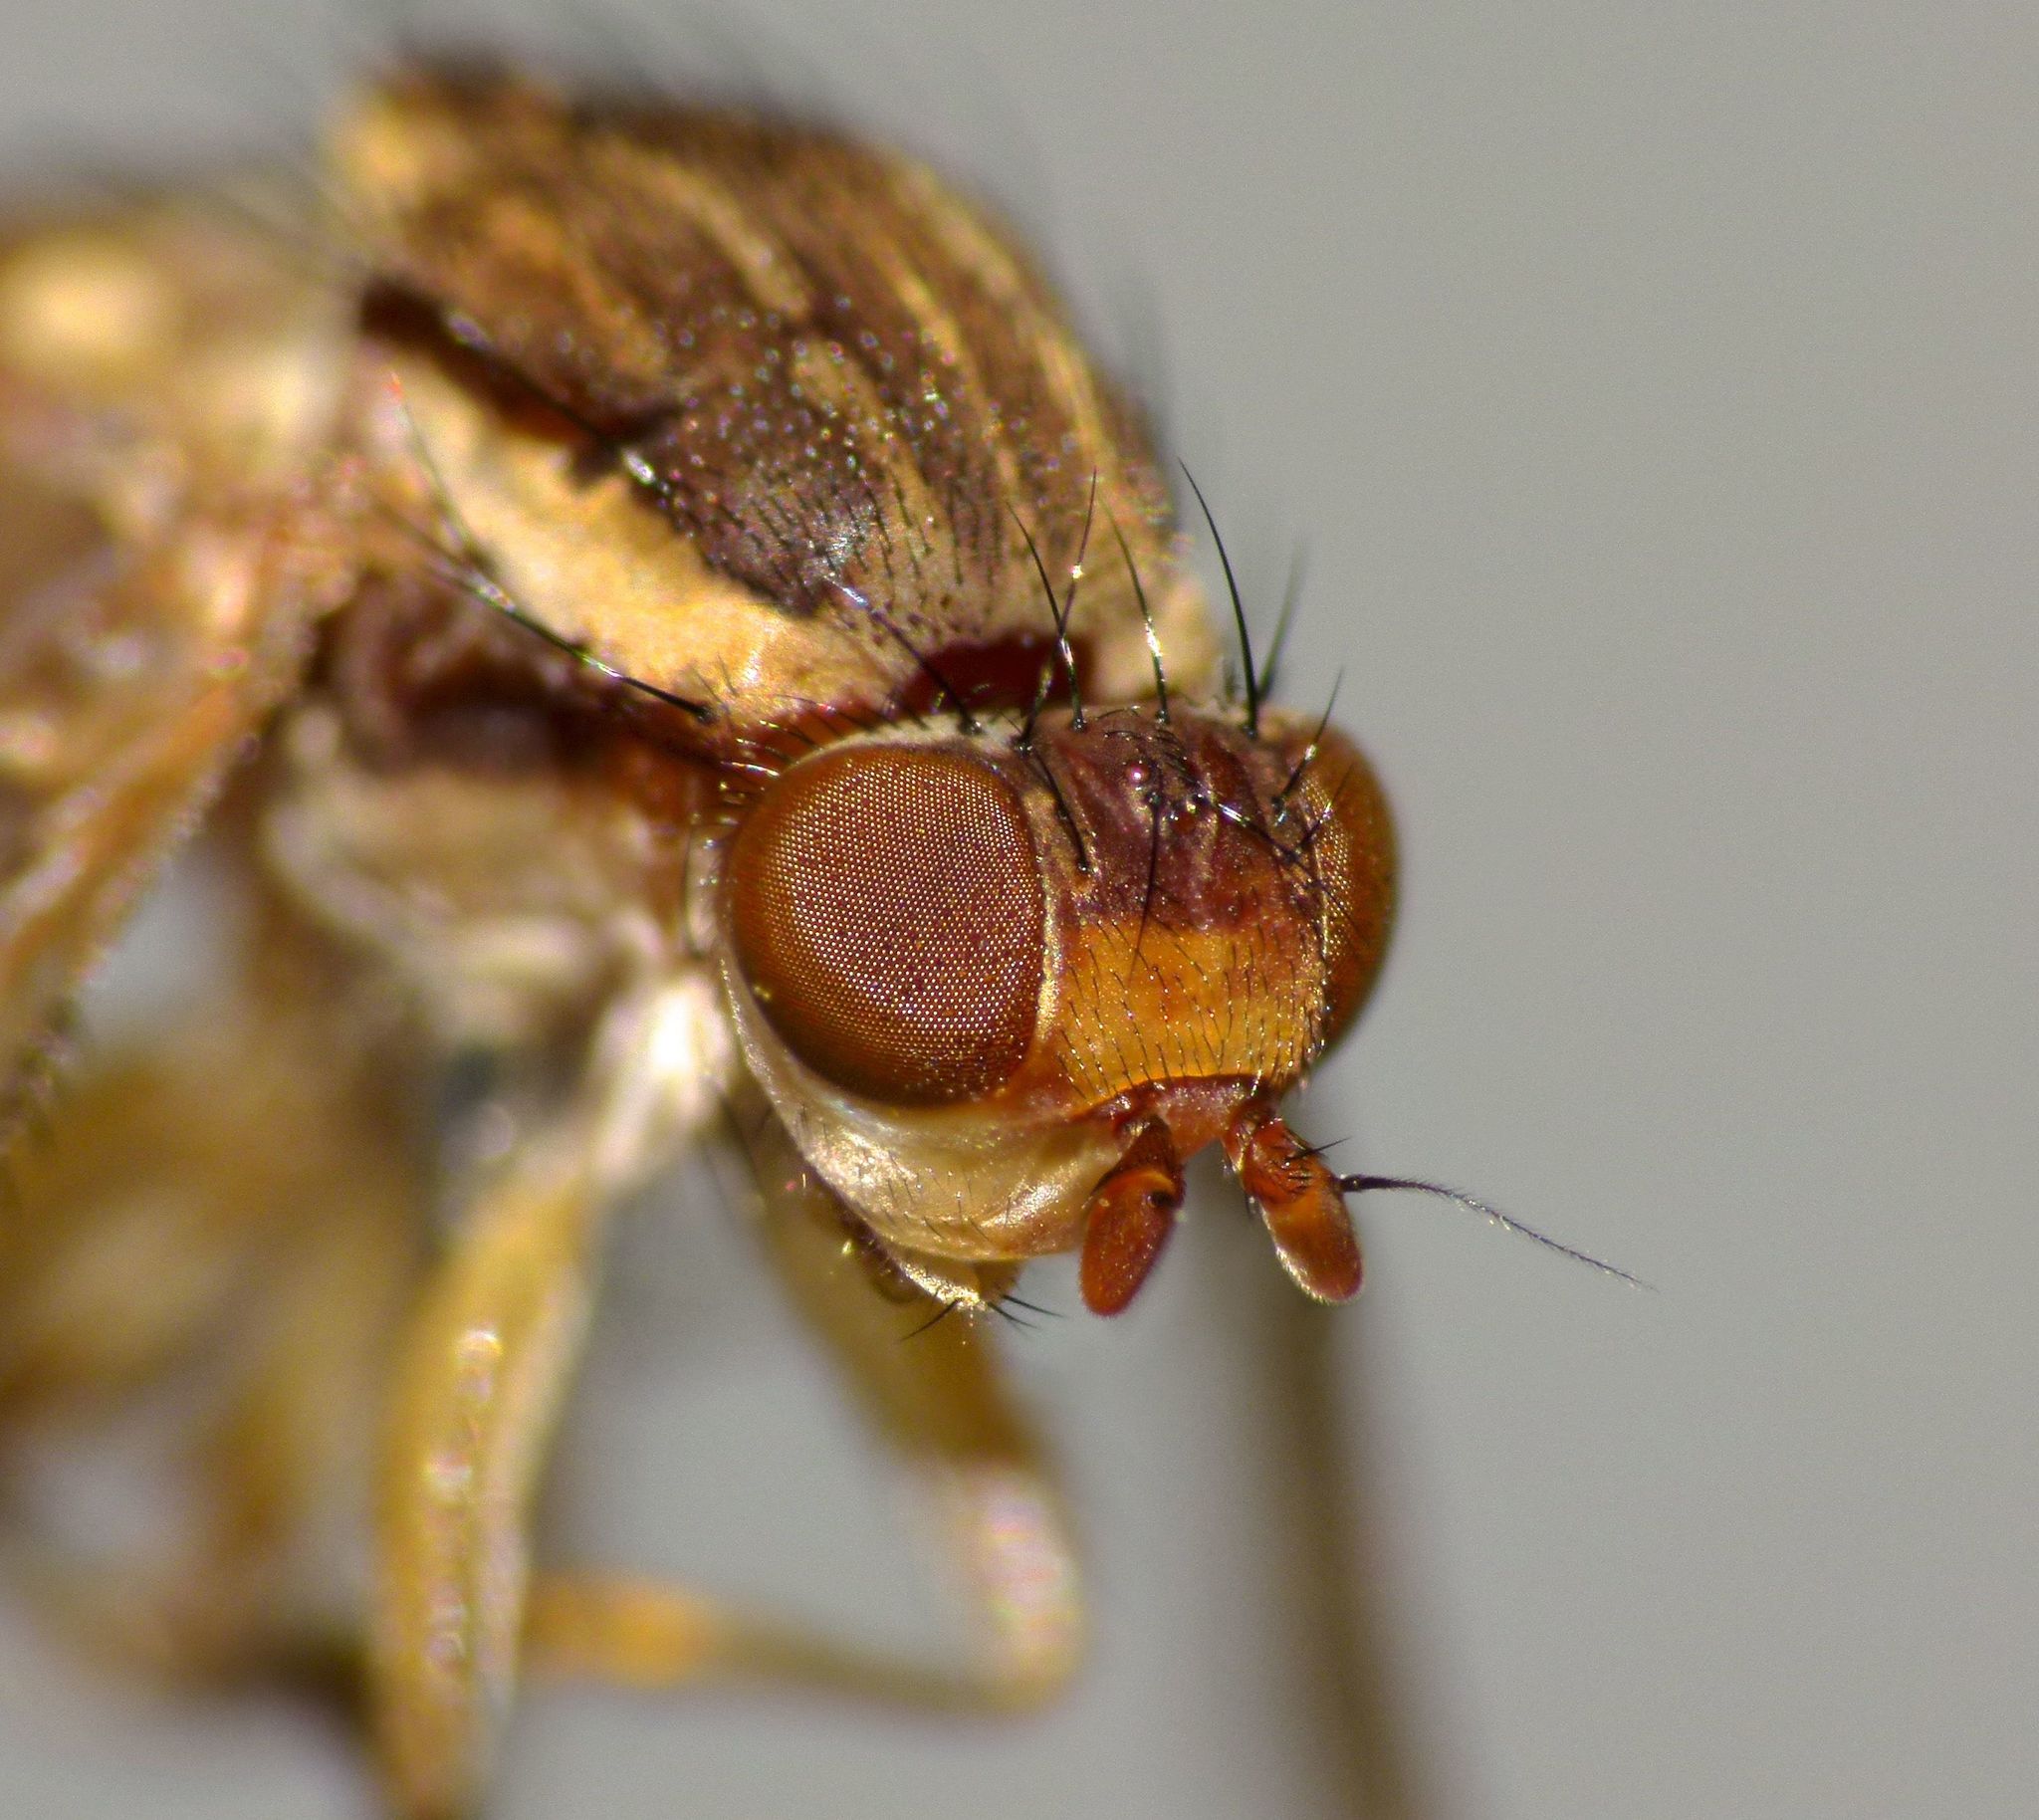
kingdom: Animalia
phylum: Arthropoda
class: Insecta
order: Diptera
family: Helosciomyzidae
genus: Napaeosciomyza
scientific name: Napaeosciomyza spinicosta
